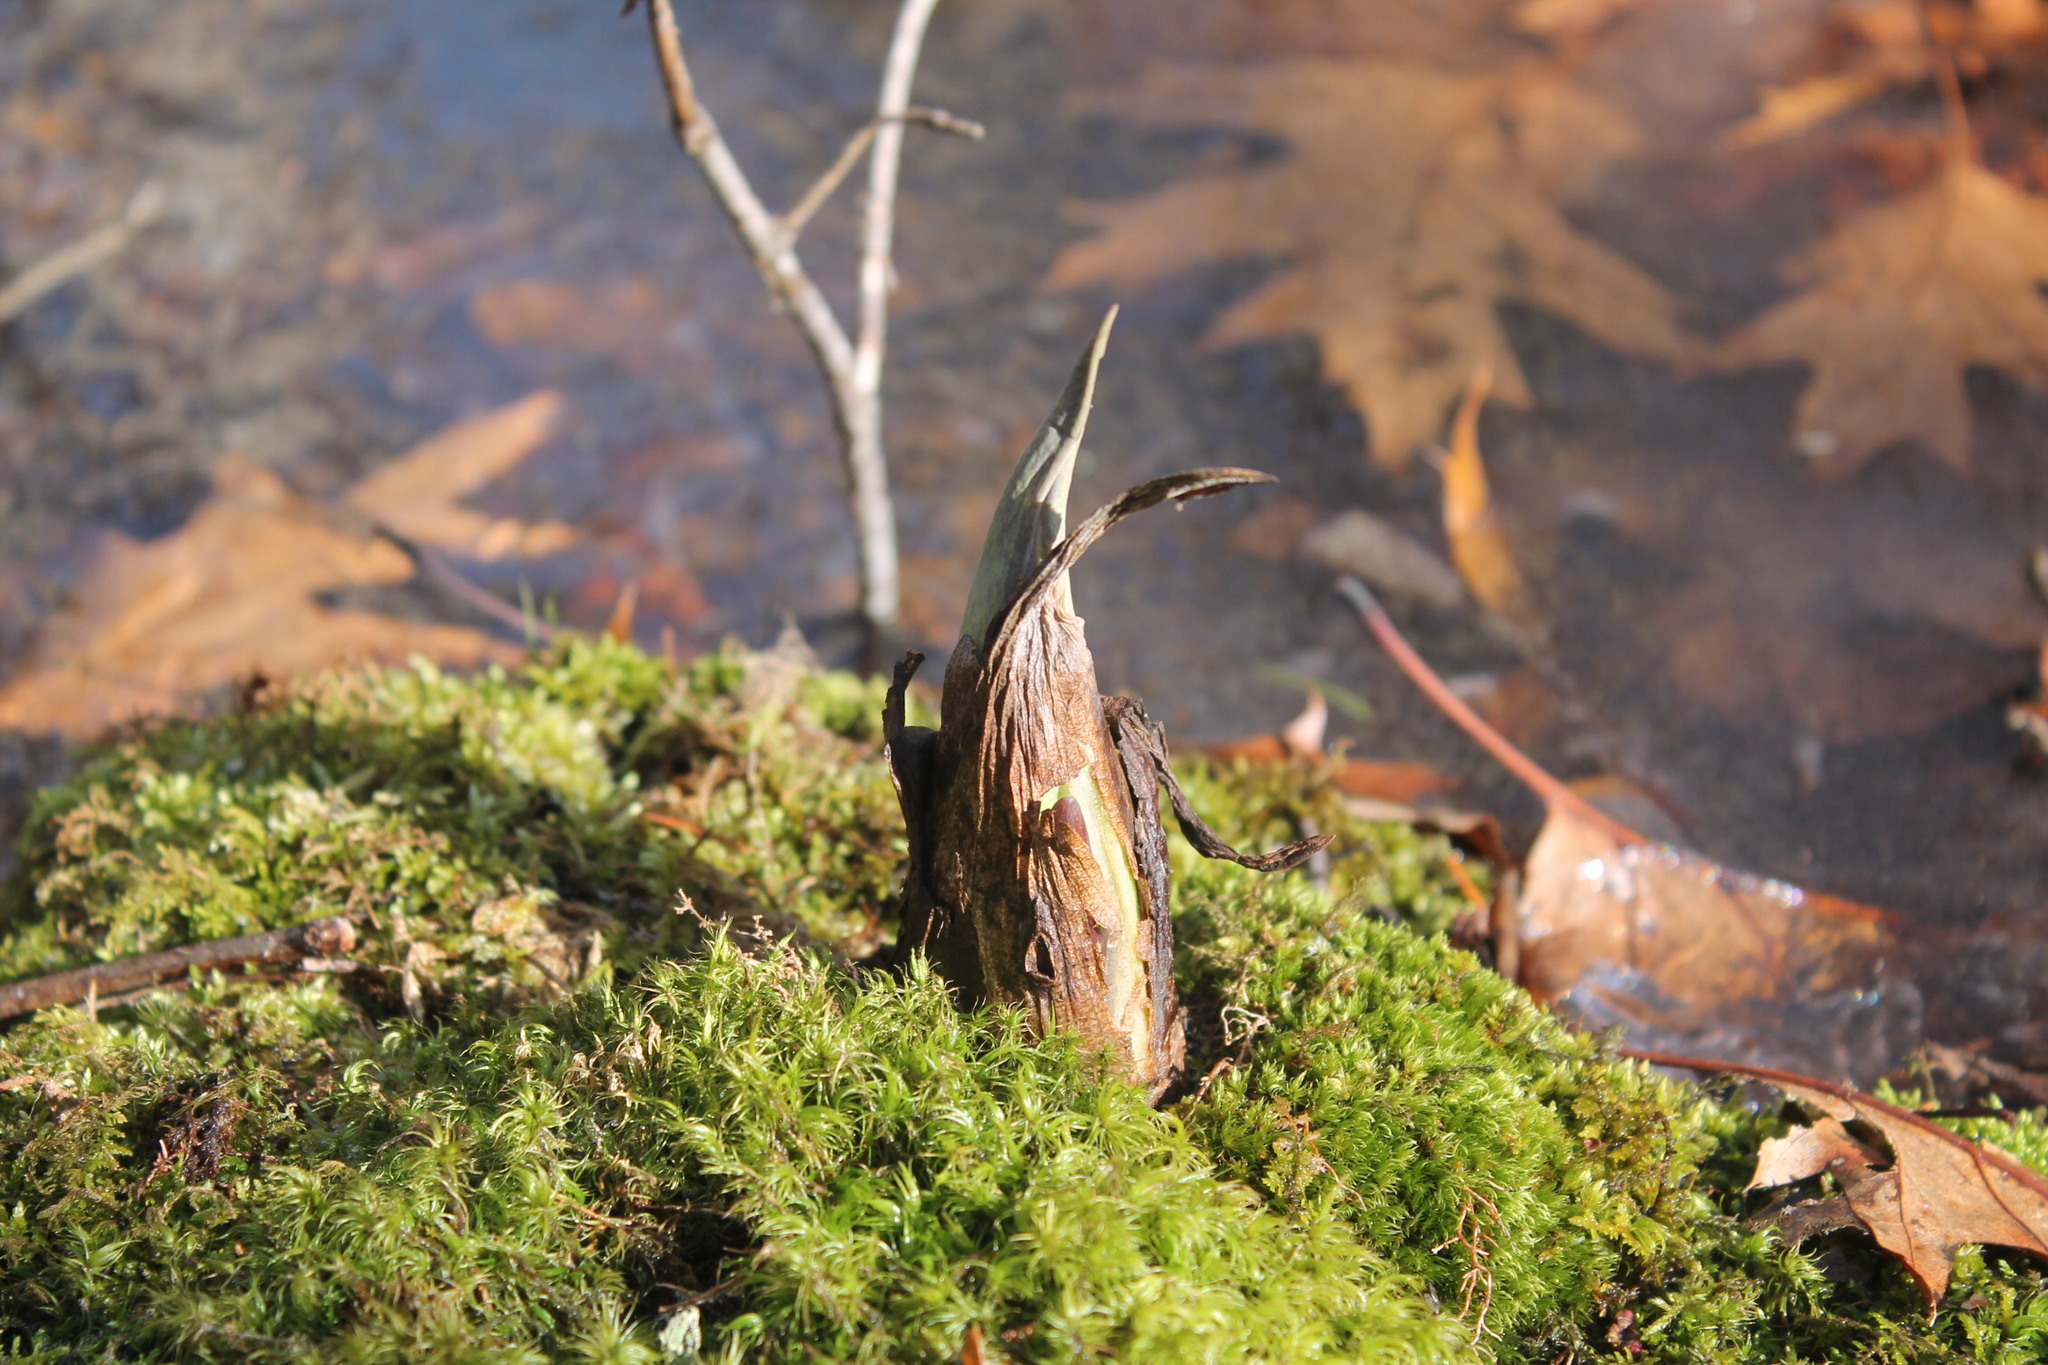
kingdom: Plantae
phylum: Tracheophyta
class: Liliopsida
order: Alismatales
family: Araceae
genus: Symplocarpus
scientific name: Symplocarpus foetidus
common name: Eastern skunk cabbage
